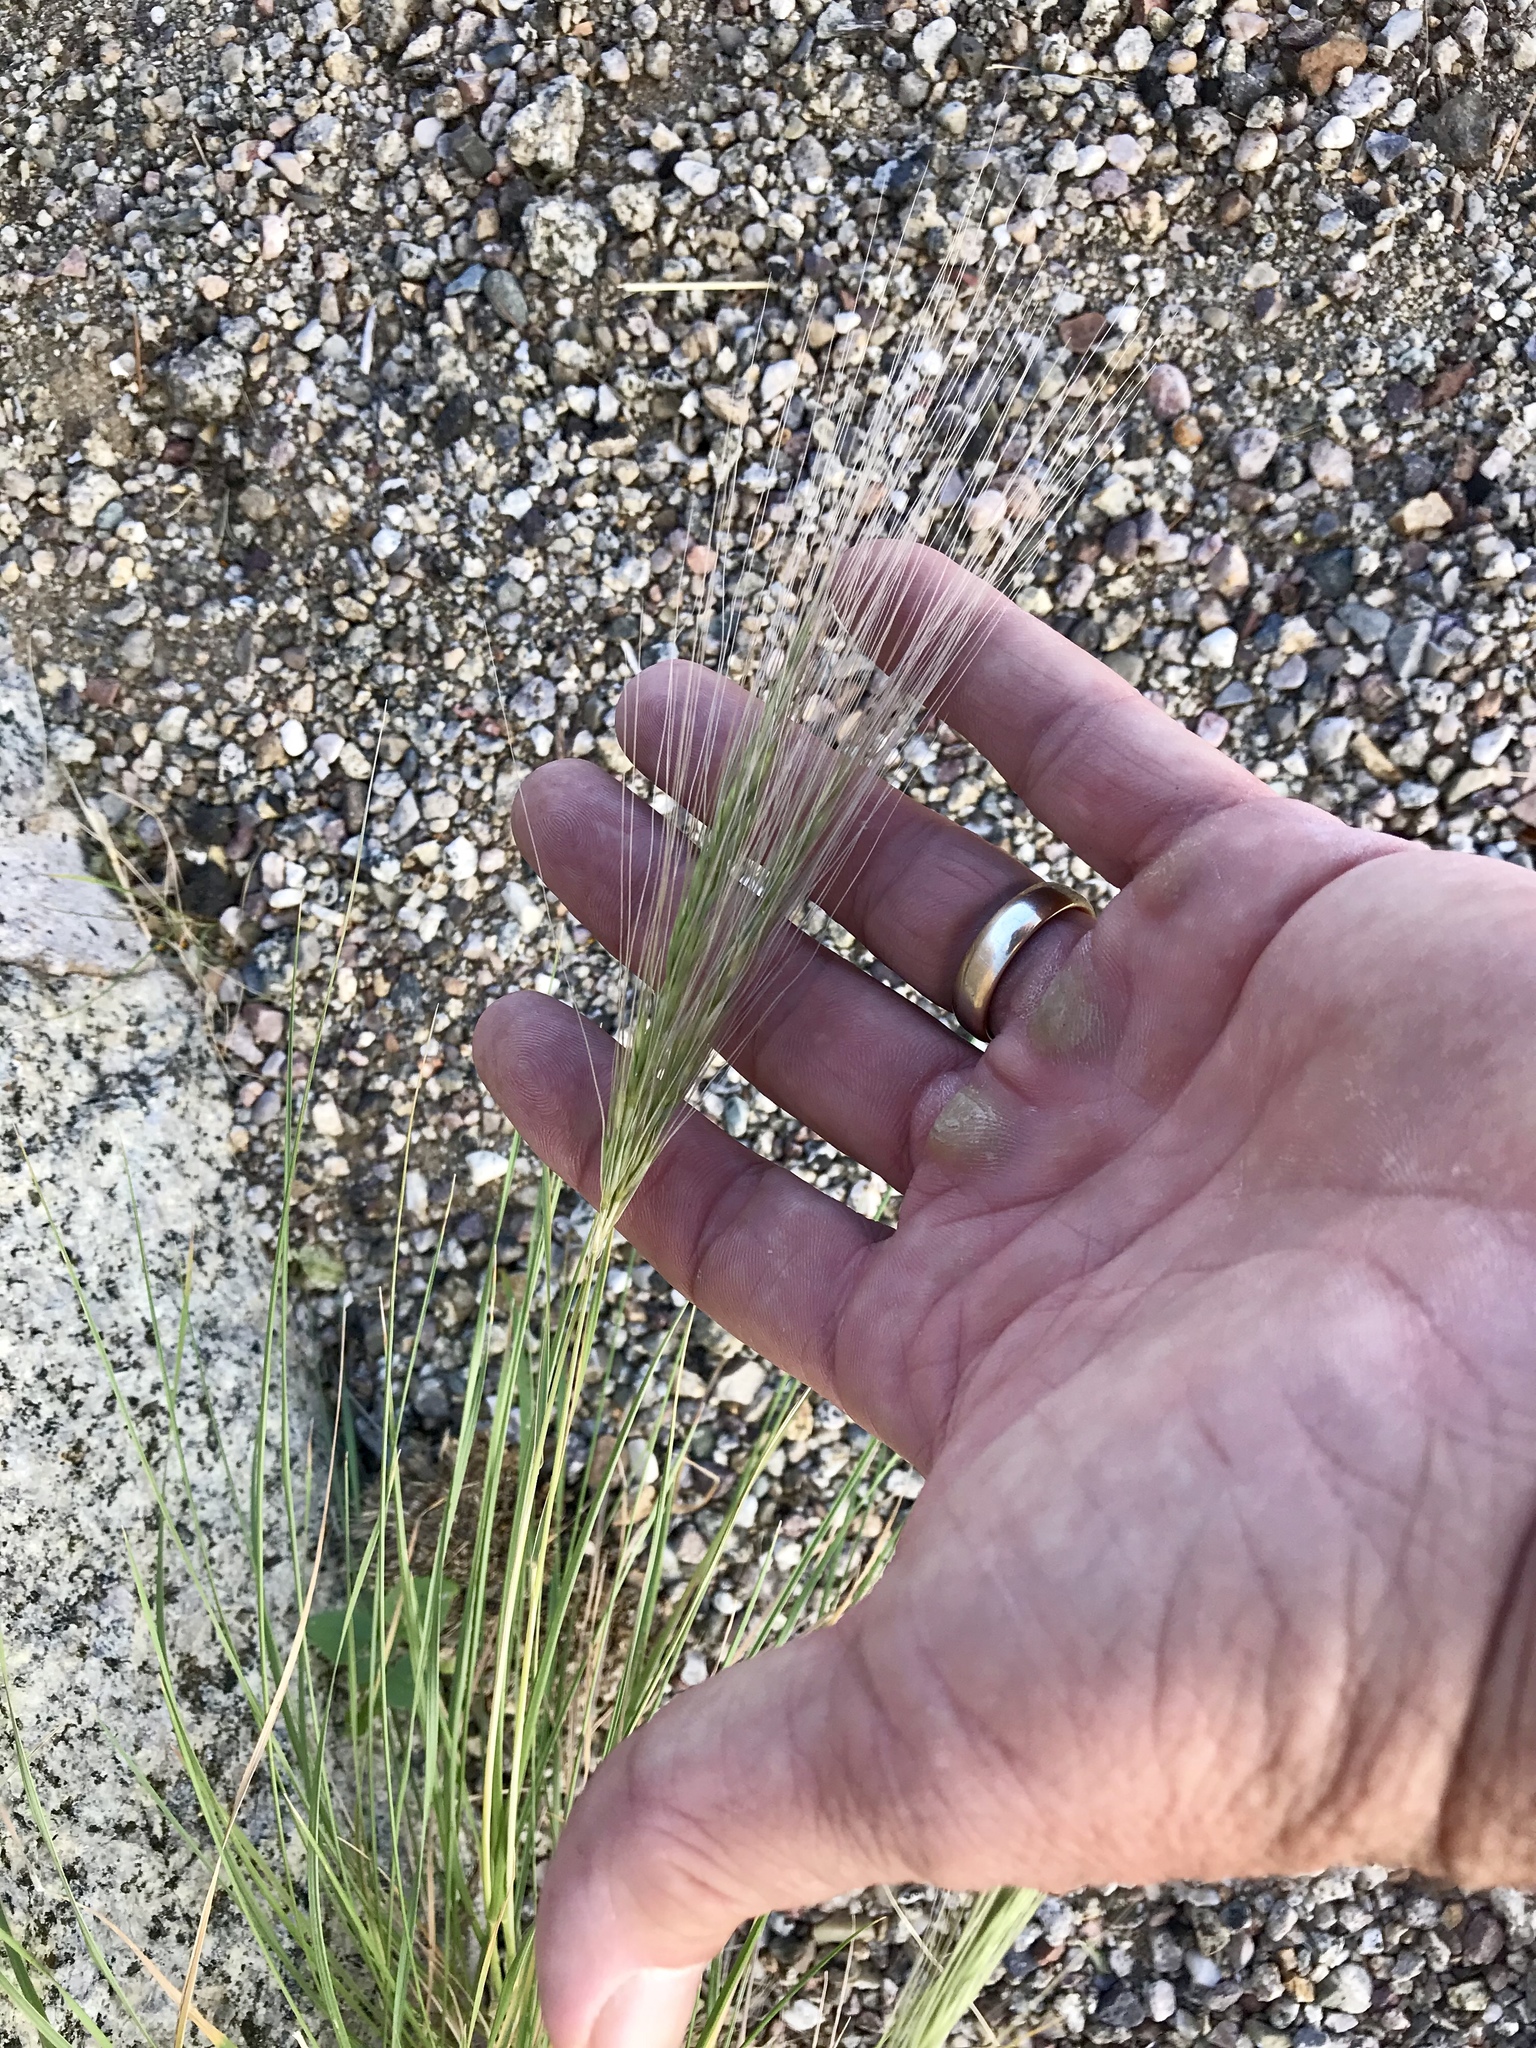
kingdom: Plantae
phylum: Tracheophyta
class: Liliopsida
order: Poales
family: Poaceae
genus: Elymus
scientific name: Elymus elymoides
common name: Bottlebrush squirreltail
